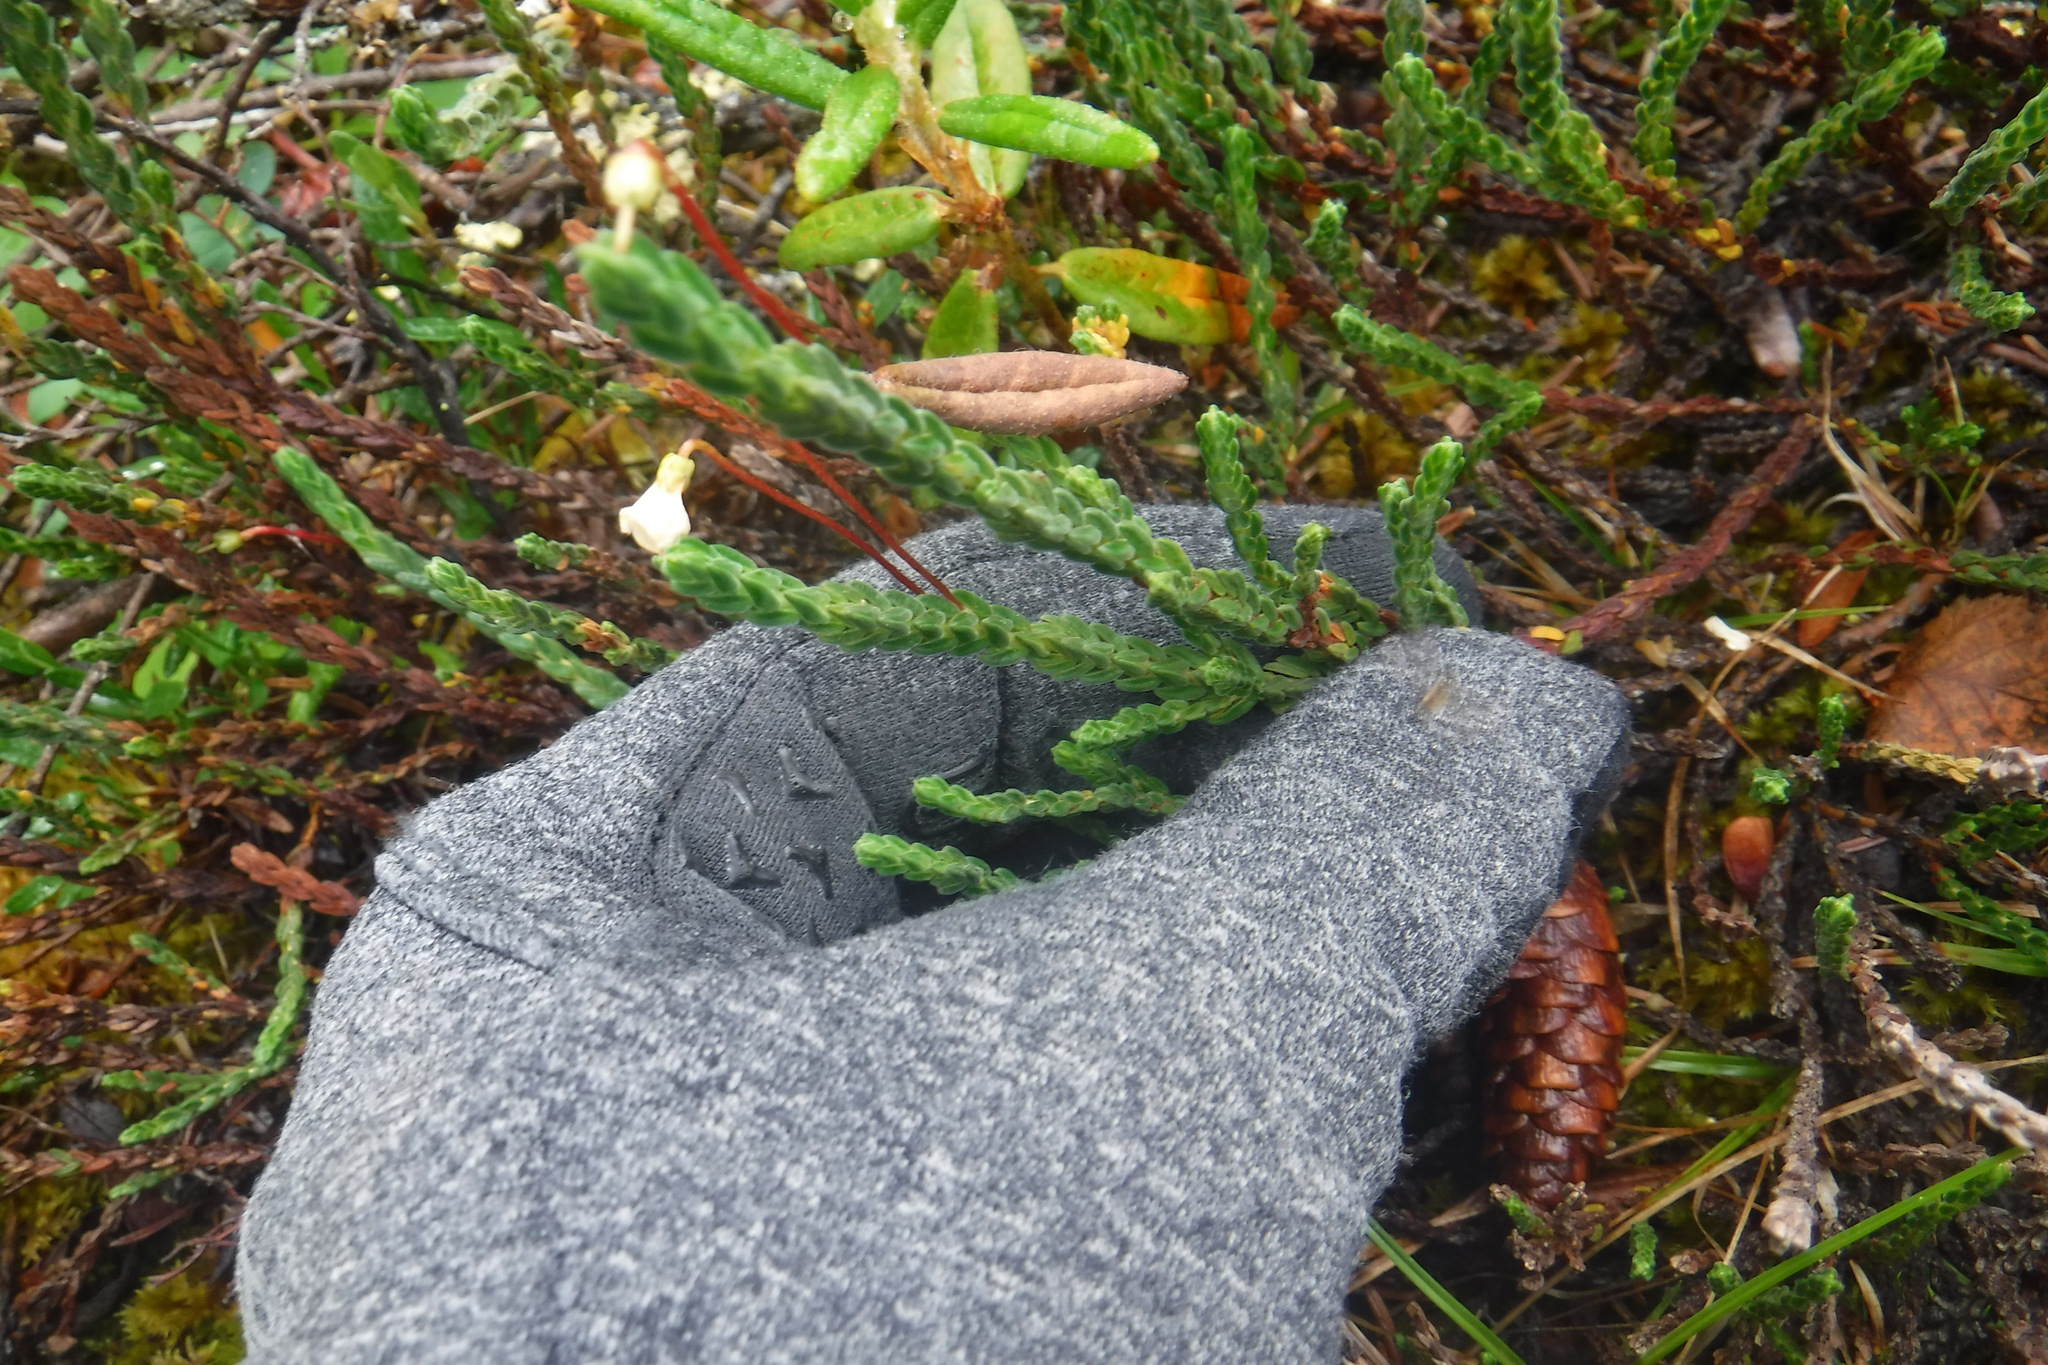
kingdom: Plantae
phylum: Tracheophyta
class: Magnoliopsida
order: Ericales
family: Ericaceae
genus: Cassiope
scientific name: Cassiope tetragona
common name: Arctic bell heather
